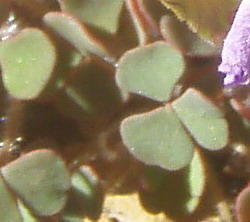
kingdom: Plantae
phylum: Tracheophyta
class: Magnoliopsida
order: Oxalidales
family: Oxalidaceae
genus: Oxalis
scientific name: Oxalis punctata
